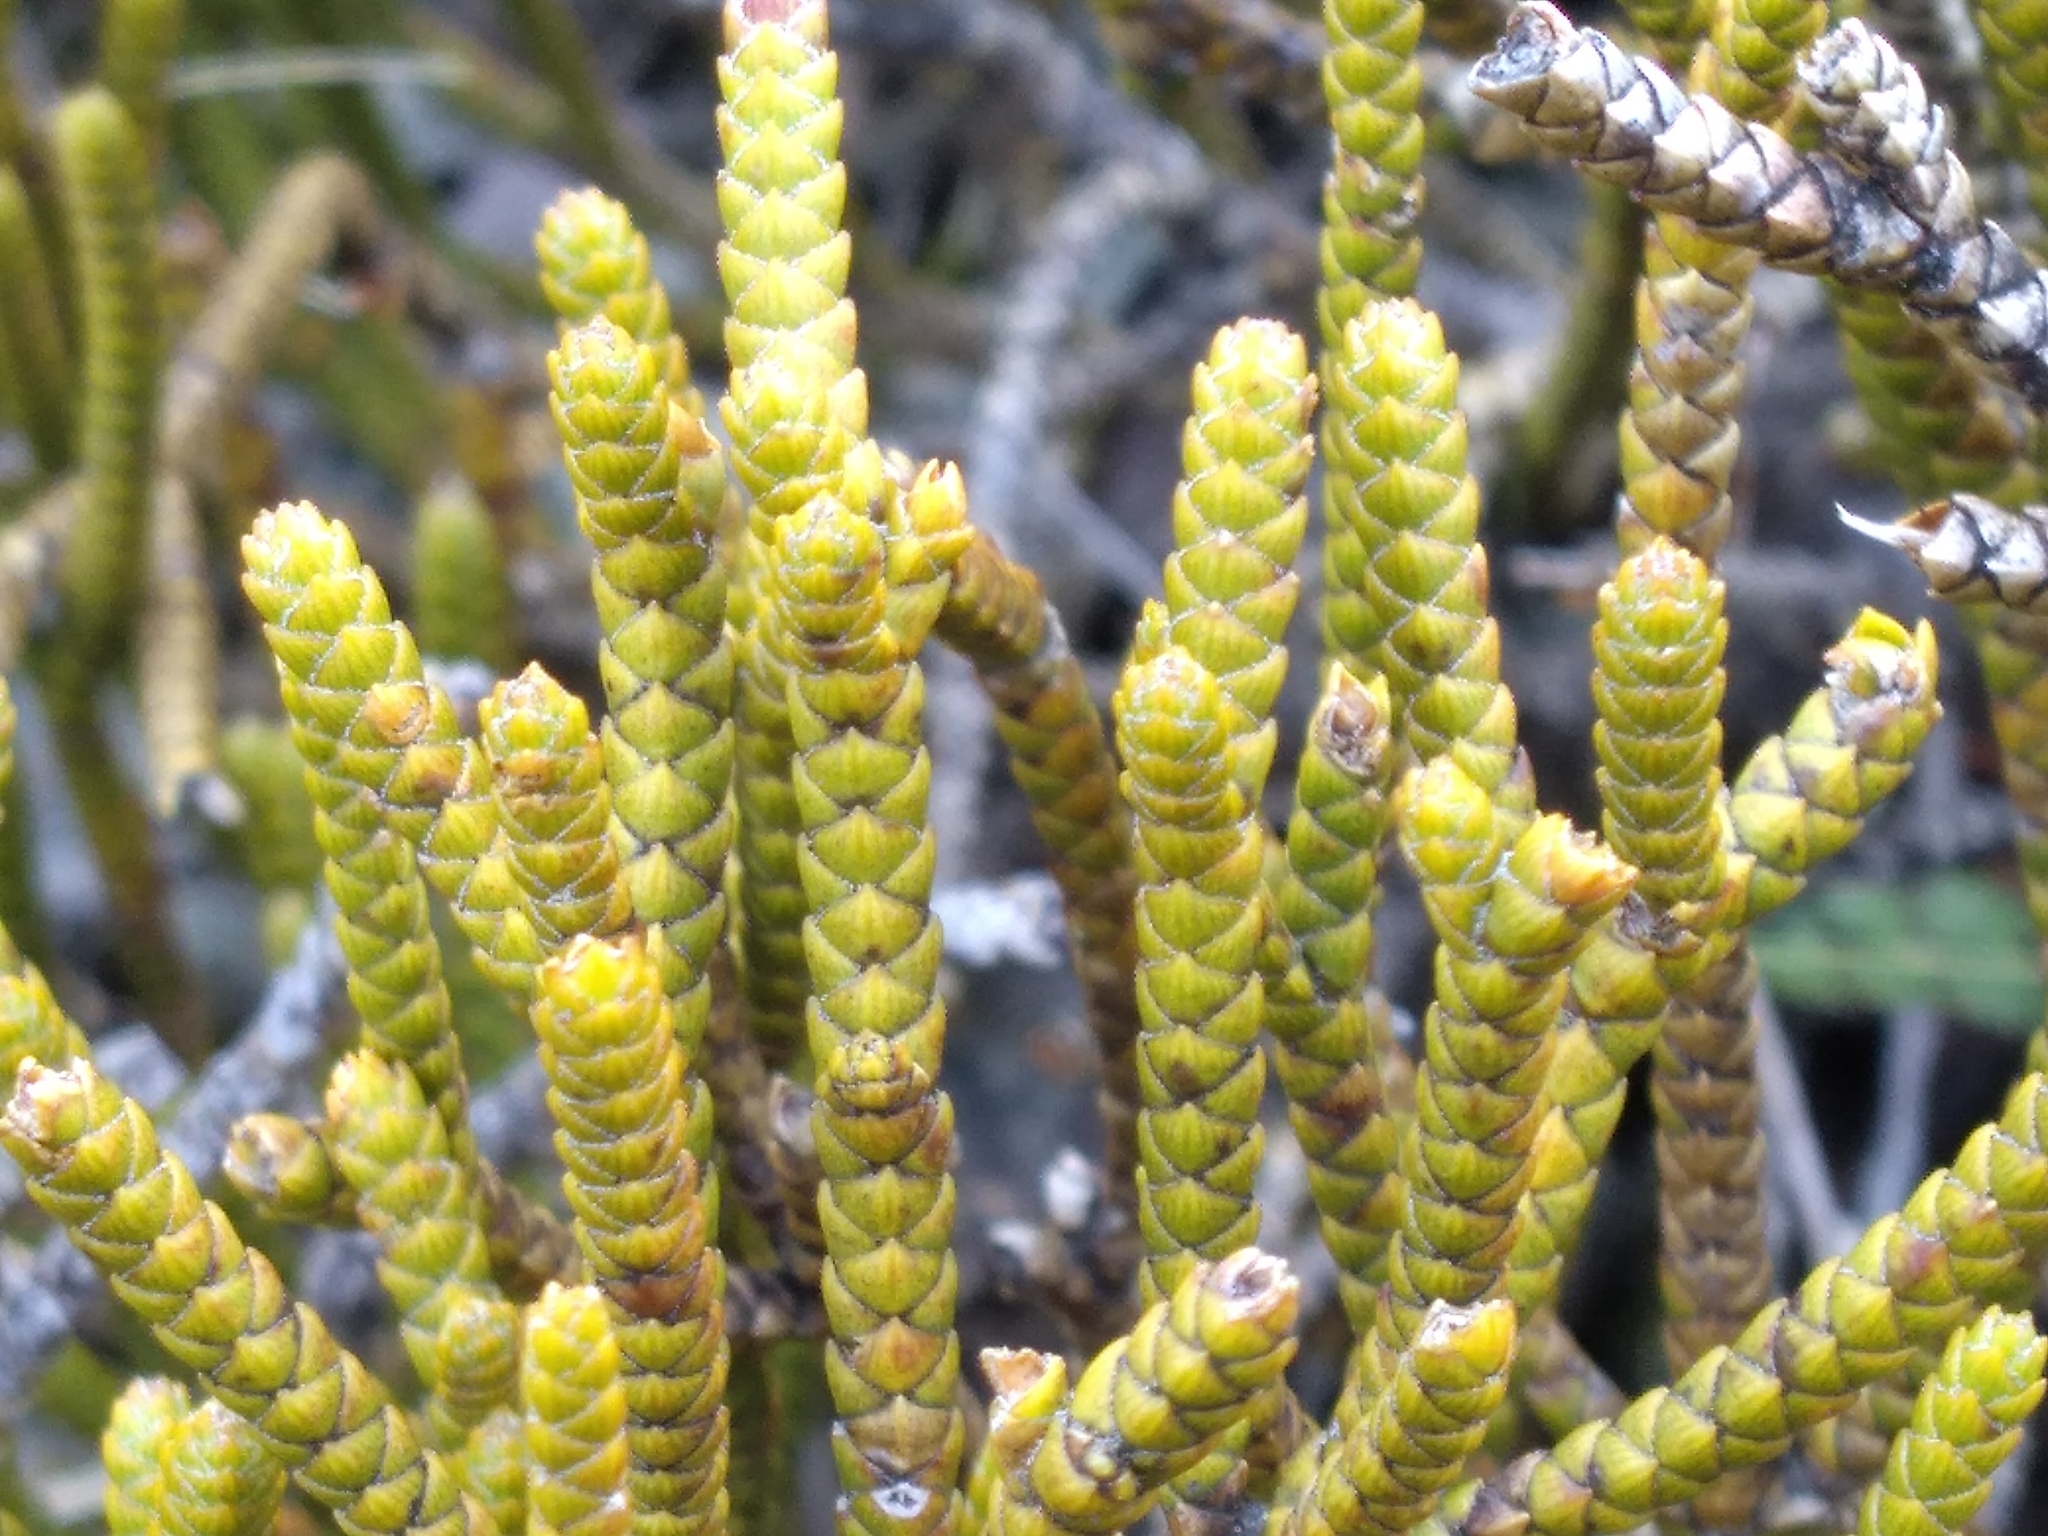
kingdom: Plantae
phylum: Tracheophyta
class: Magnoliopsida
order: Lamiales
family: Plantaginaceae
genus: Veronica
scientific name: Veronica lycopodioides
